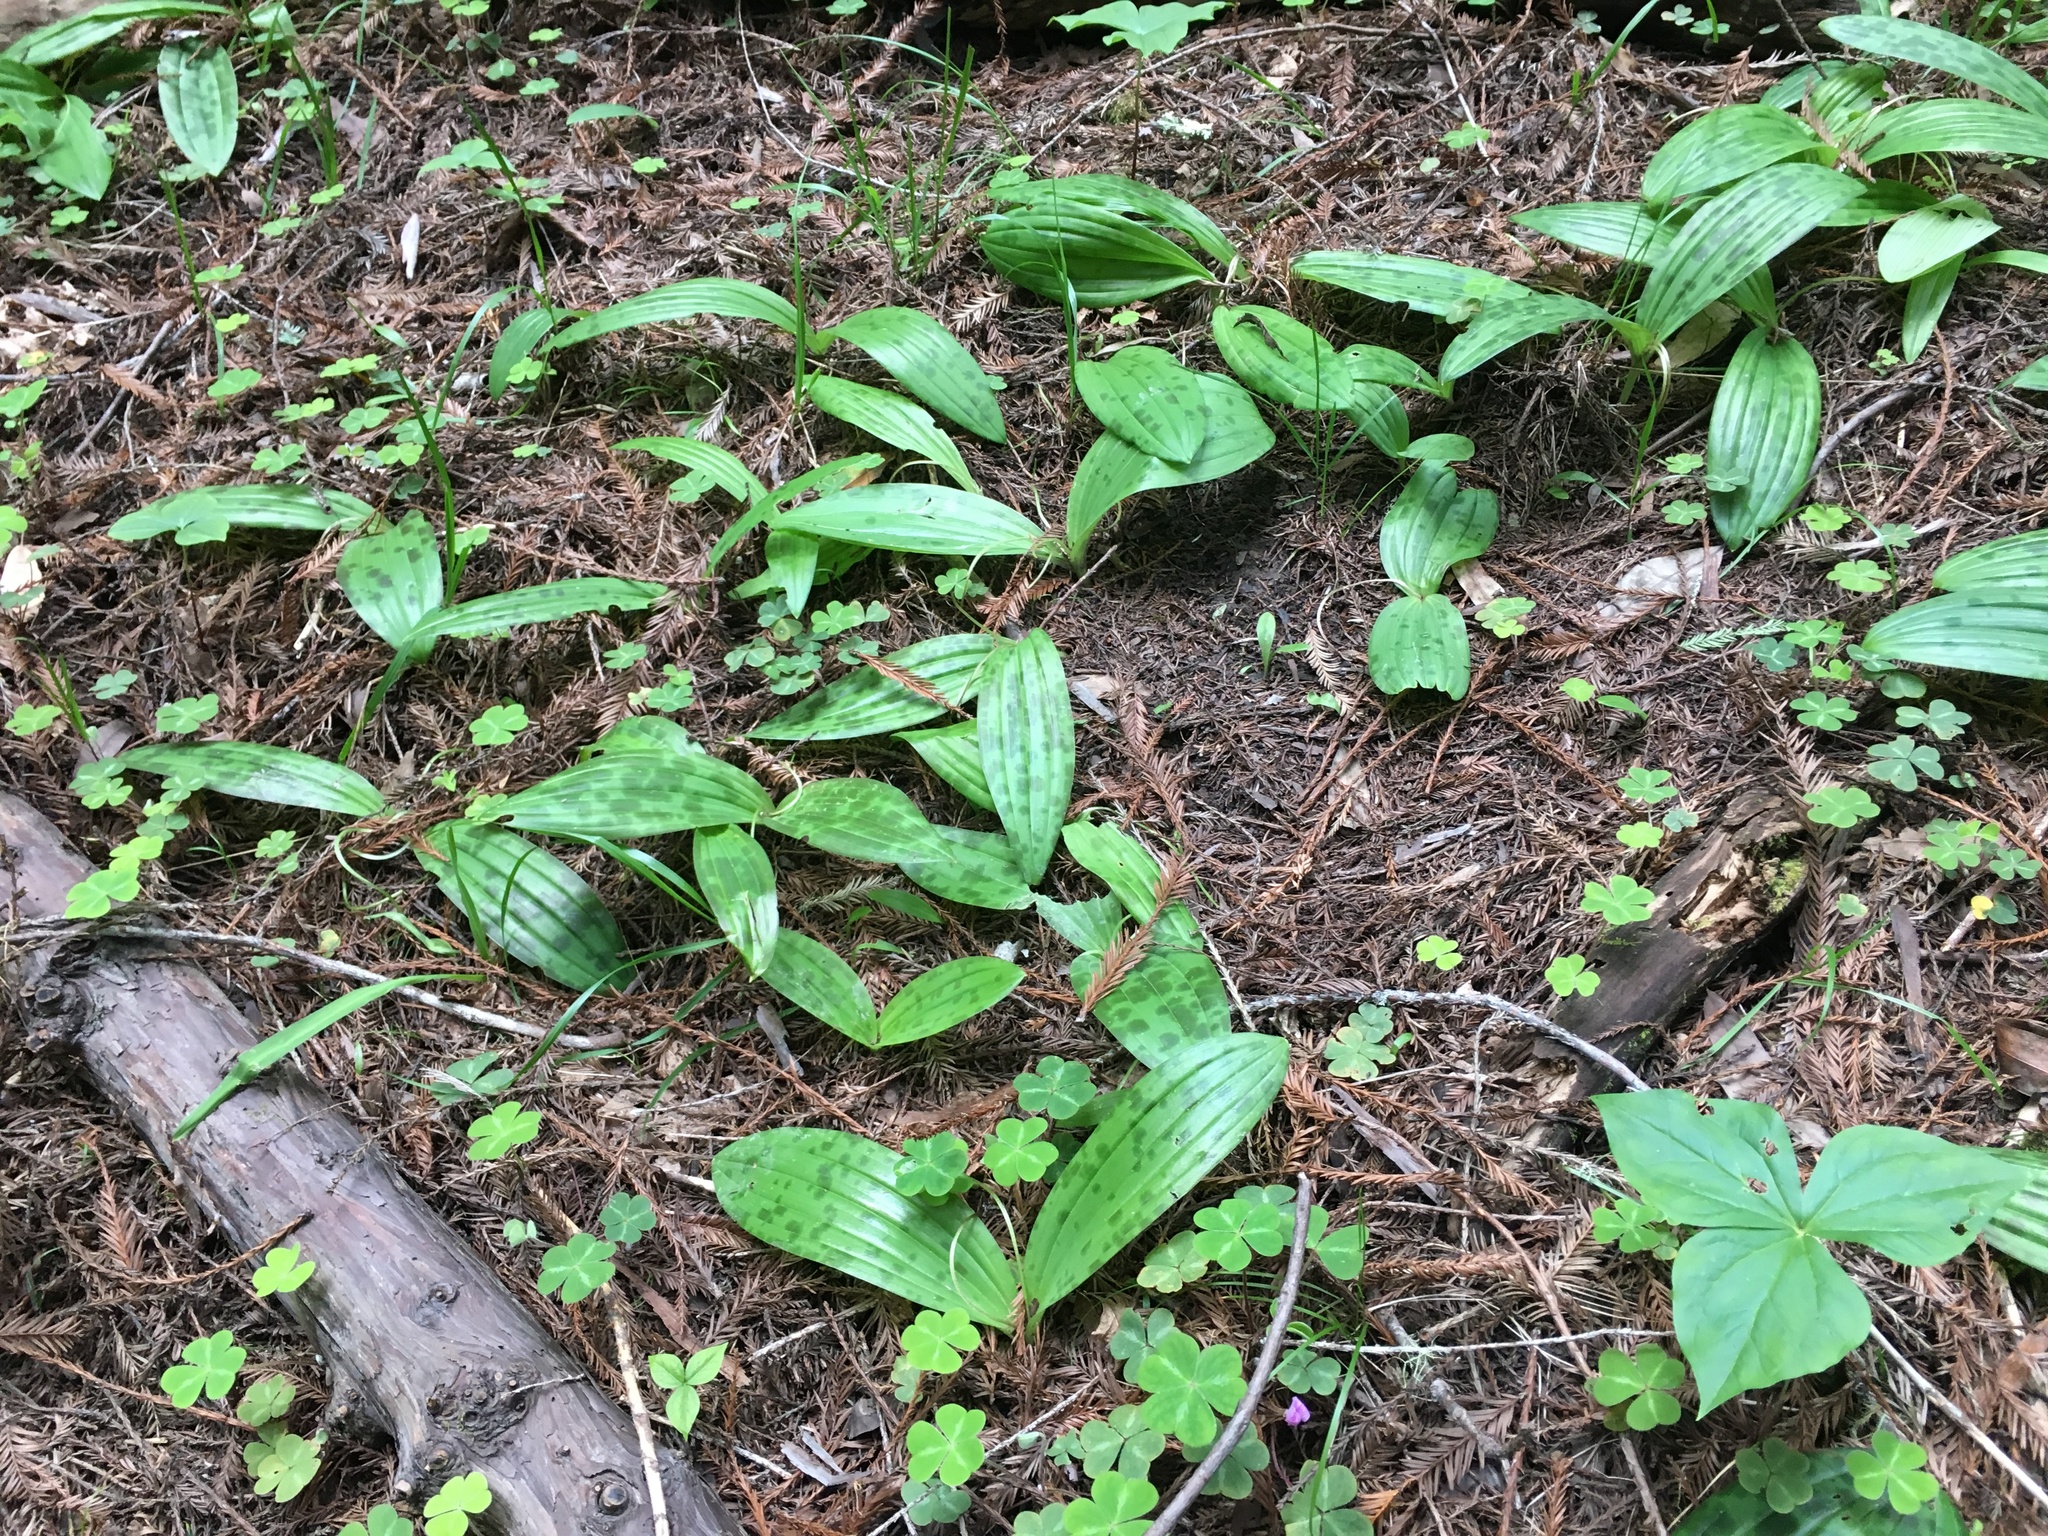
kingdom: Plantae
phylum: Tracheophyta
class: Liliopsida
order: Liliales
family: Liliaceae
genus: Scoliopus
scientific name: Scoliopus bigelovii
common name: Foetid adder's-tongue
